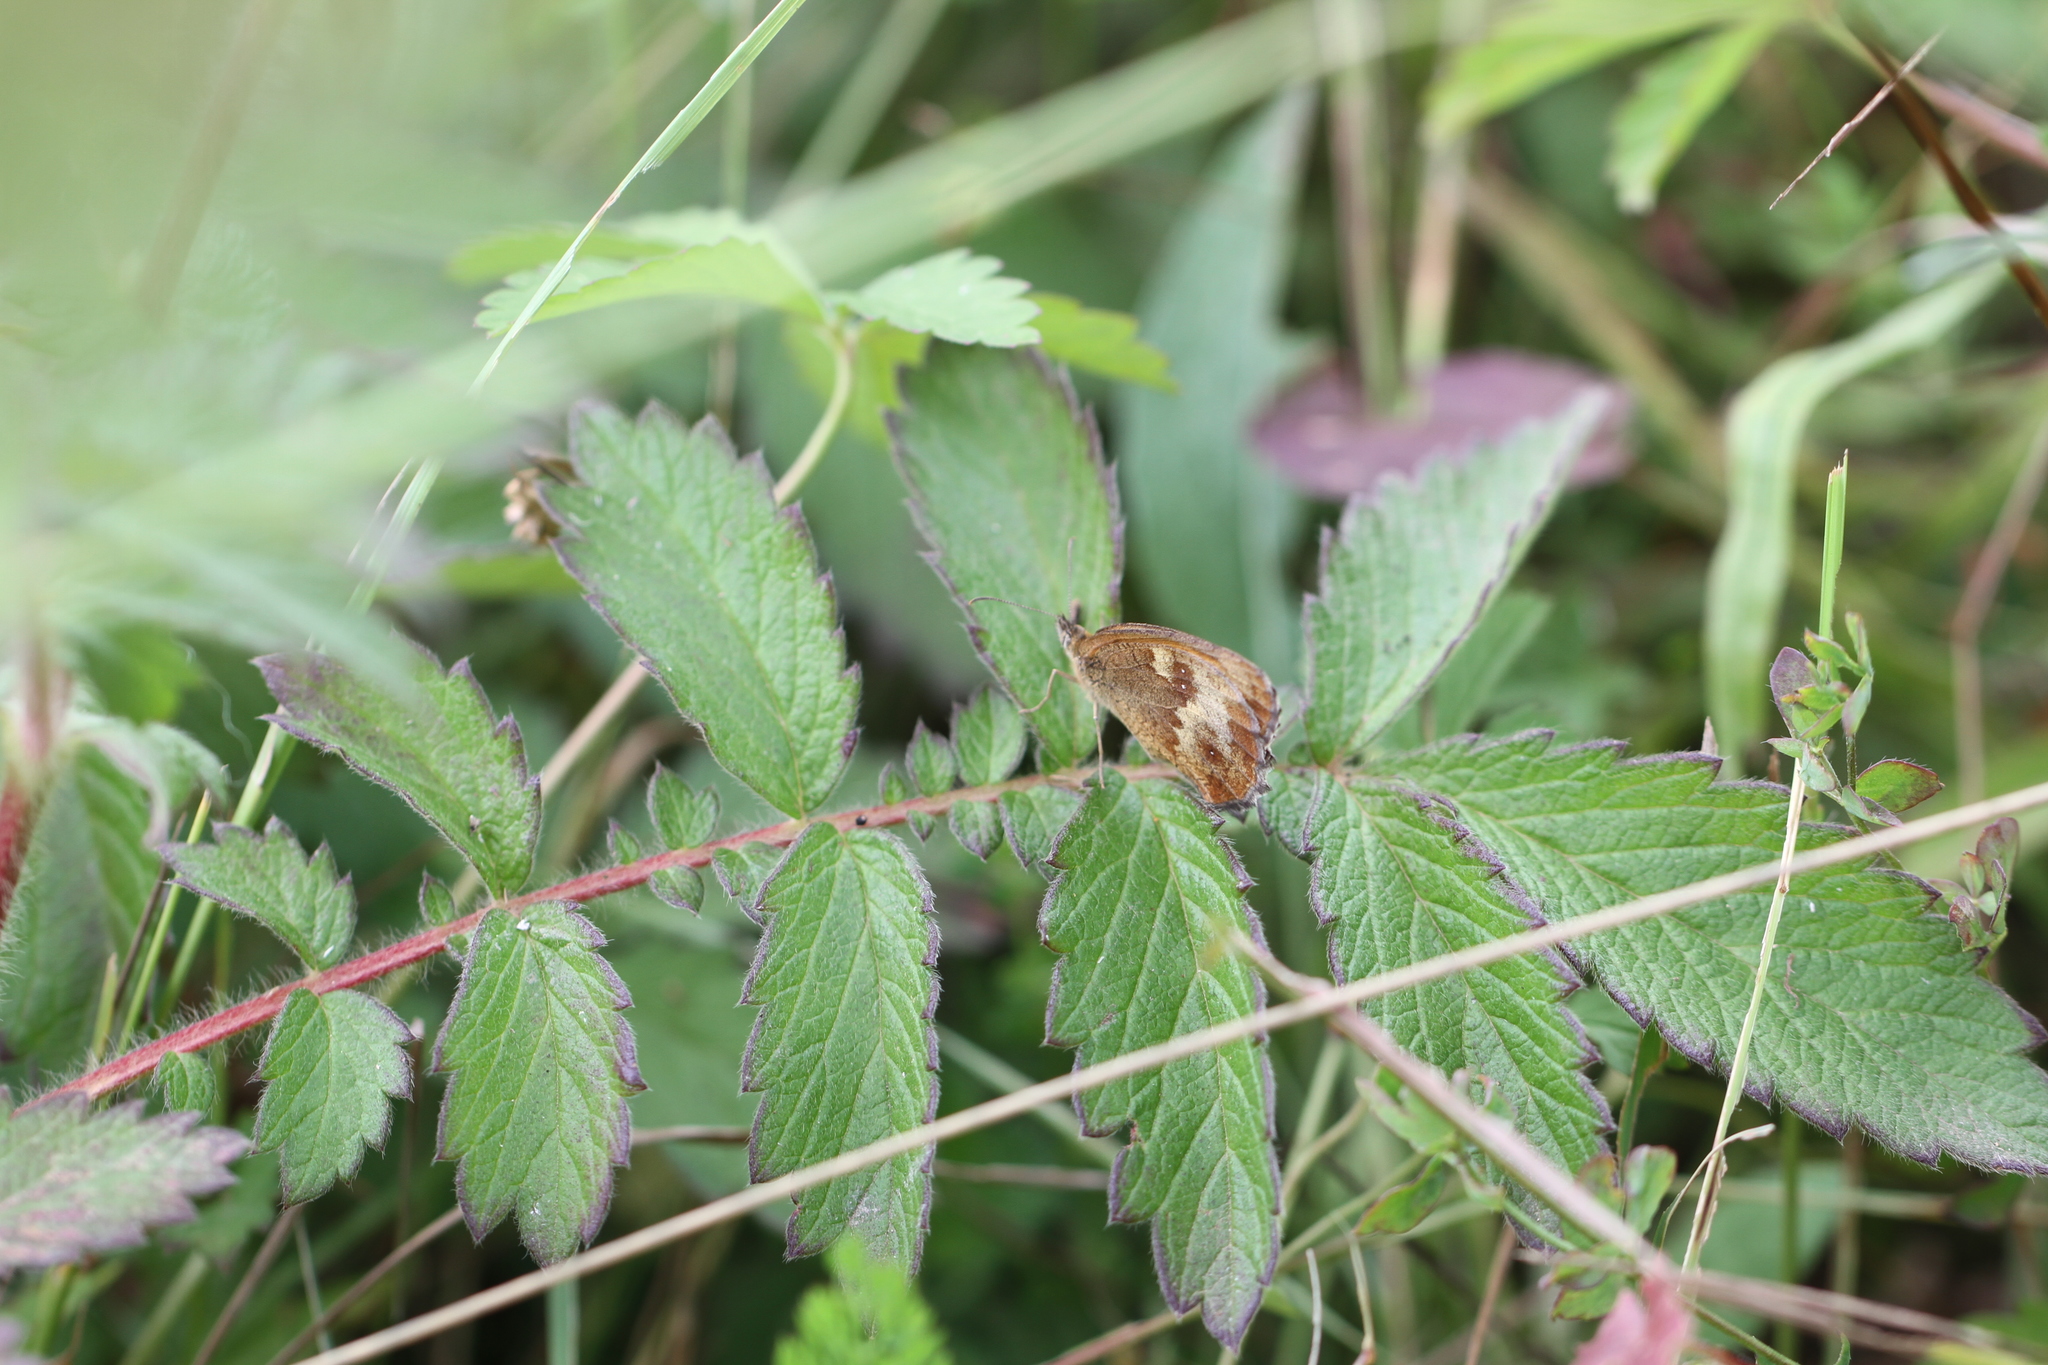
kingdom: Animalia
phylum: Arthropoda
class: Insecta
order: Lepidoptera
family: Nymphalidae
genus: Pyronia
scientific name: Pyronia tithonus
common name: Gatekeeper
